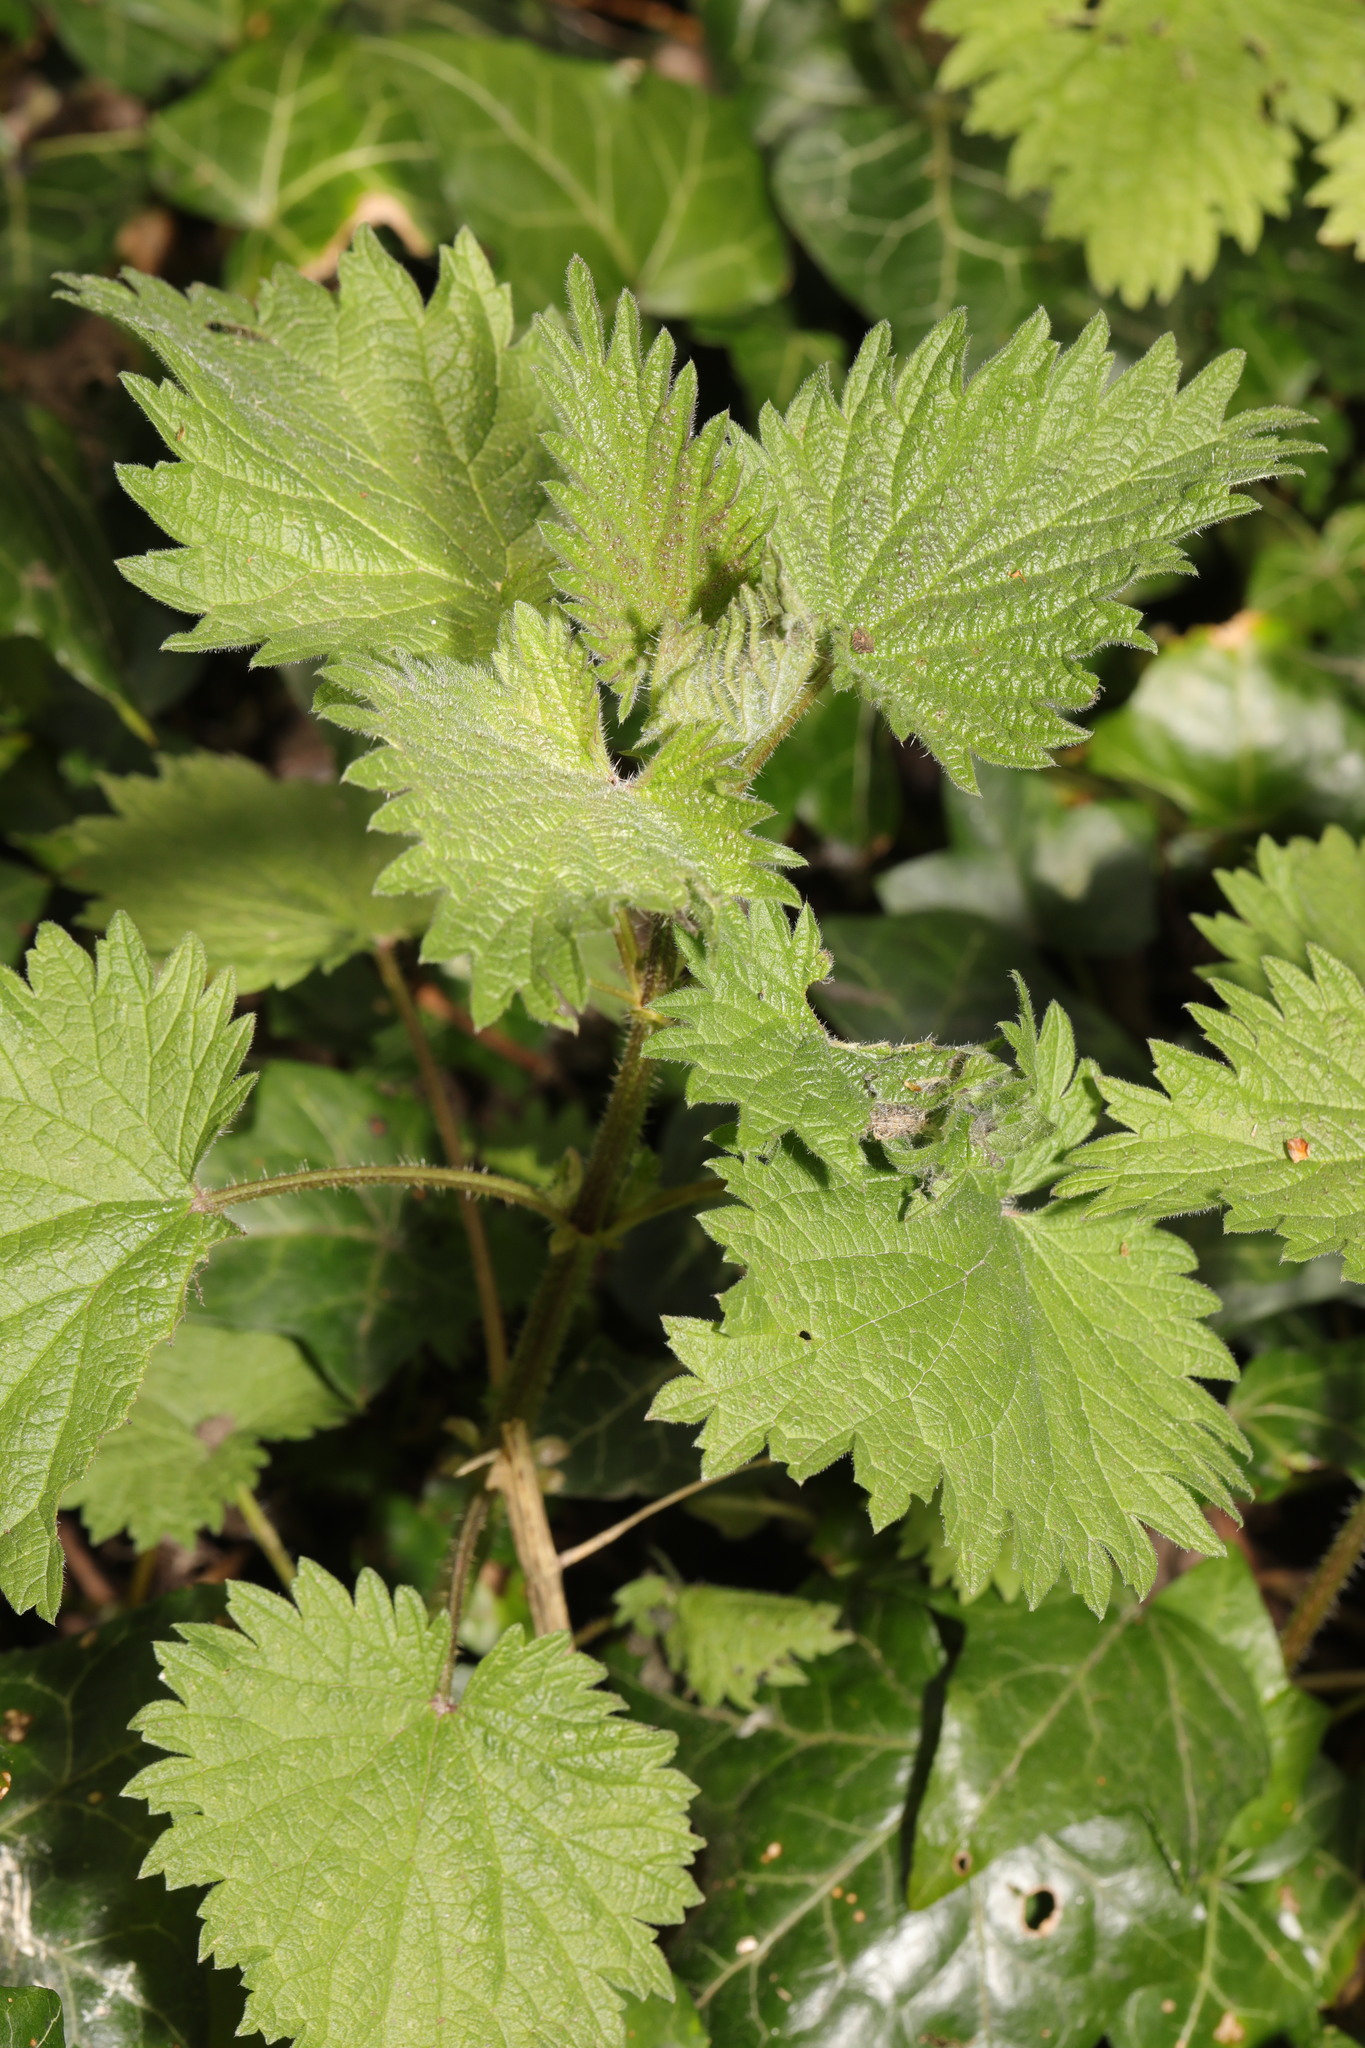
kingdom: Plantae
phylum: Tracheophyta
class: Magnoliopsida
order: Rosales
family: Urticaceae
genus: Urtica
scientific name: Urtica dioica
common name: Common nettle
